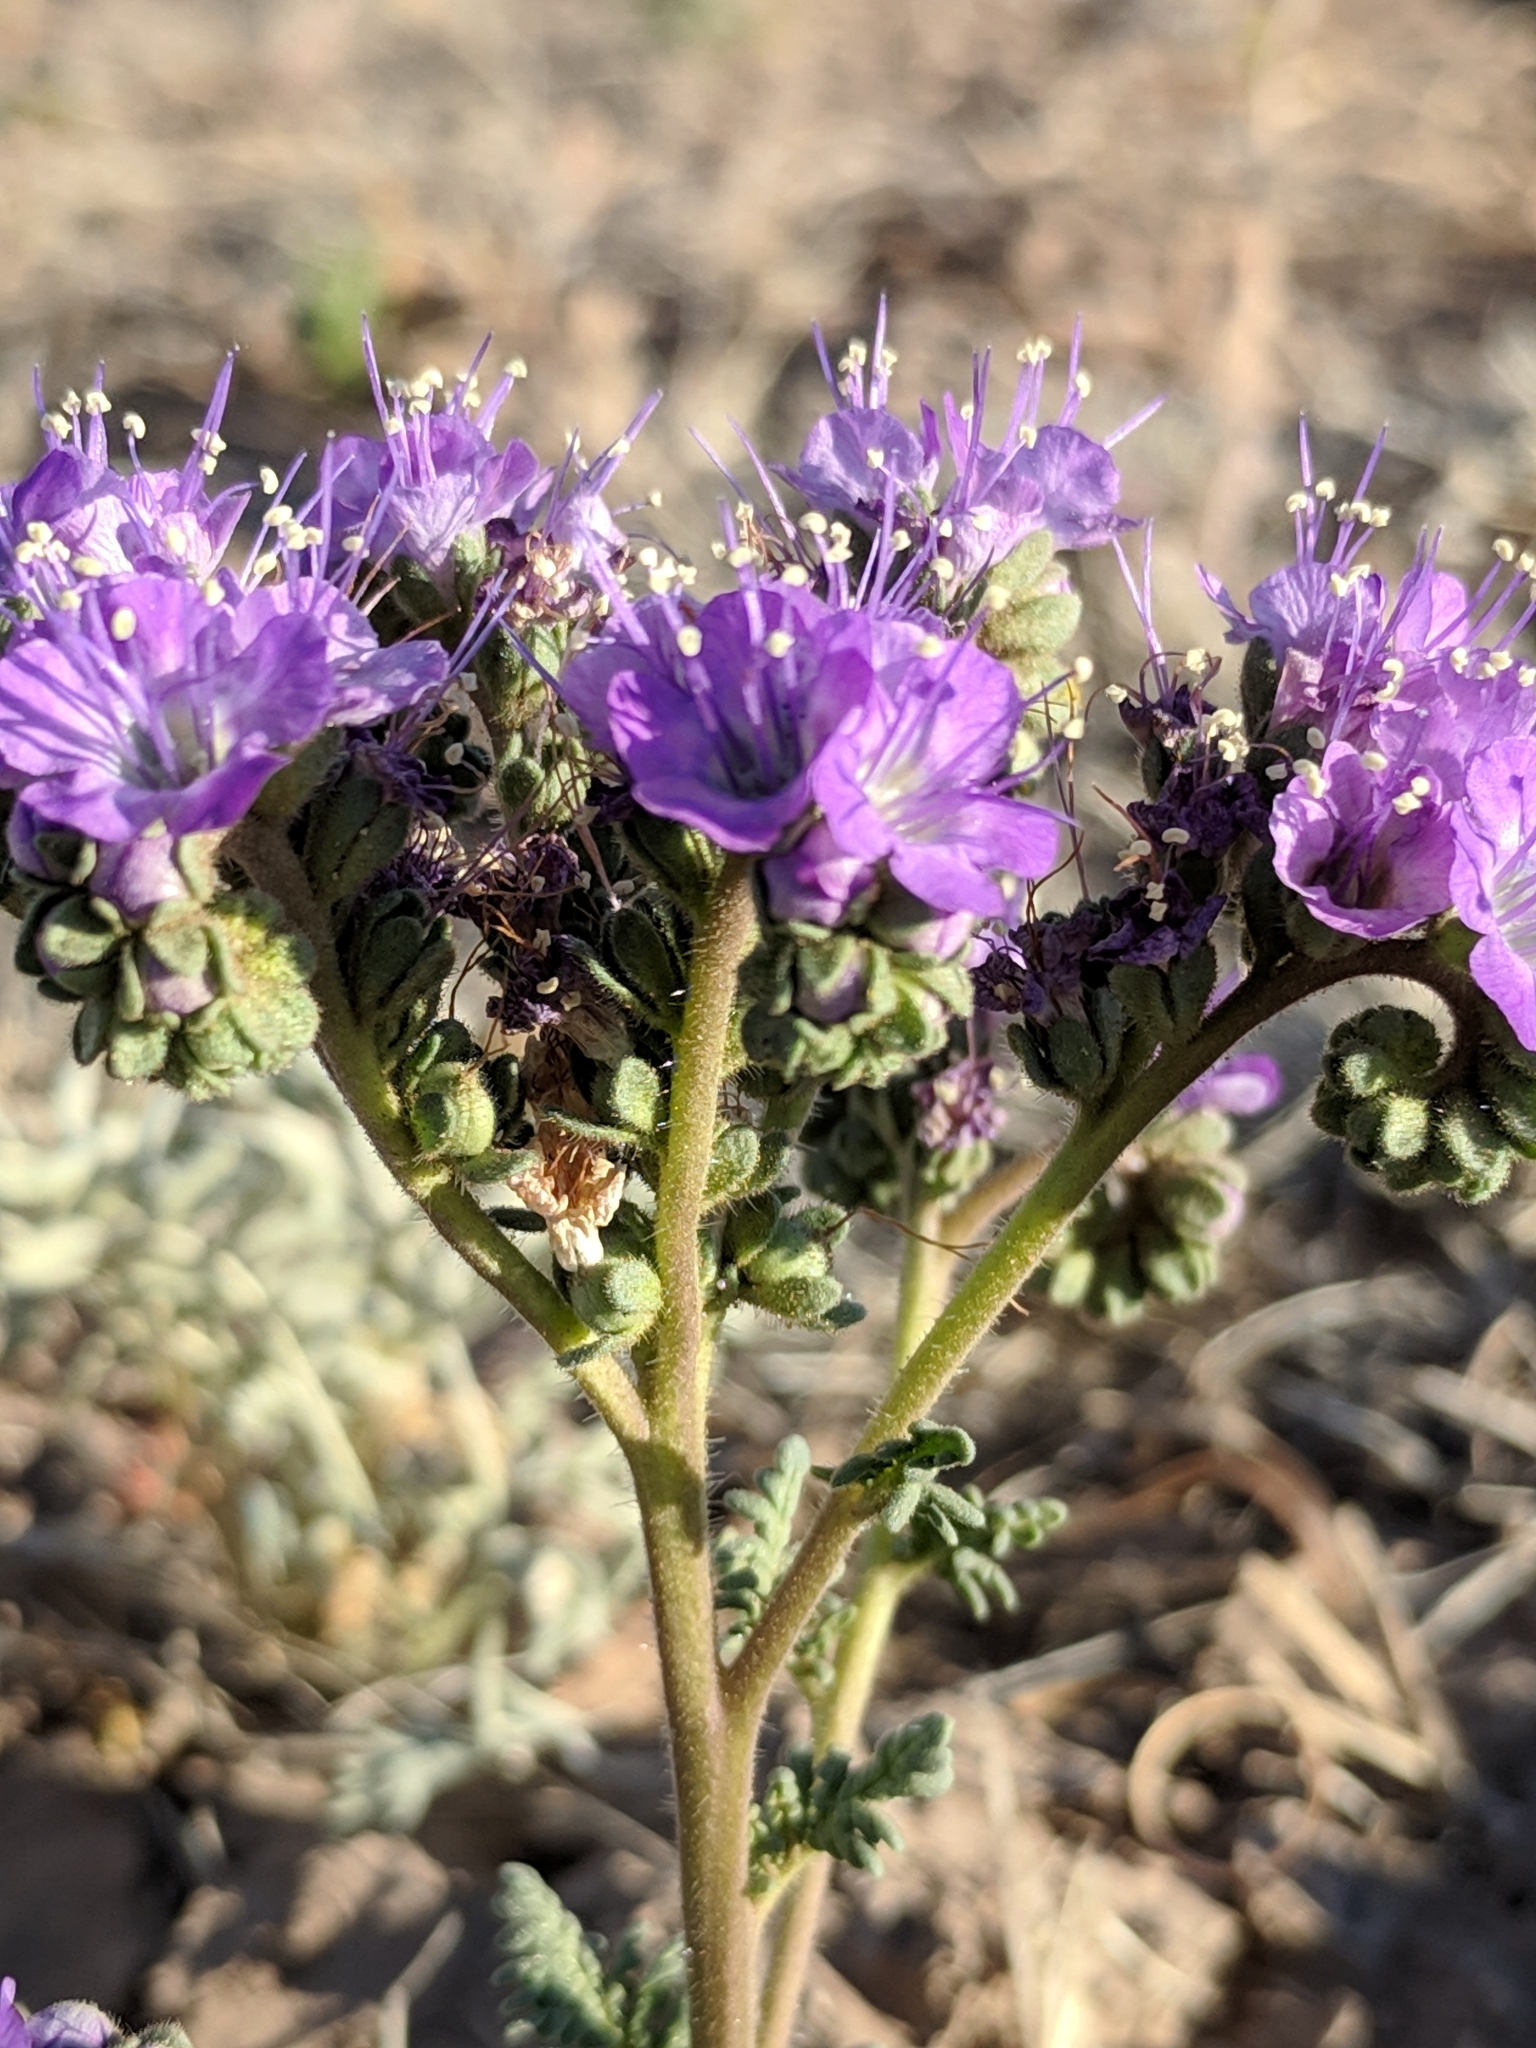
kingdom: Plantae
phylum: Tracheophyta
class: Magnoliopsida
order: Boraginales
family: Hydrophyllaceae
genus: Phacelia
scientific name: Phacelia popei
